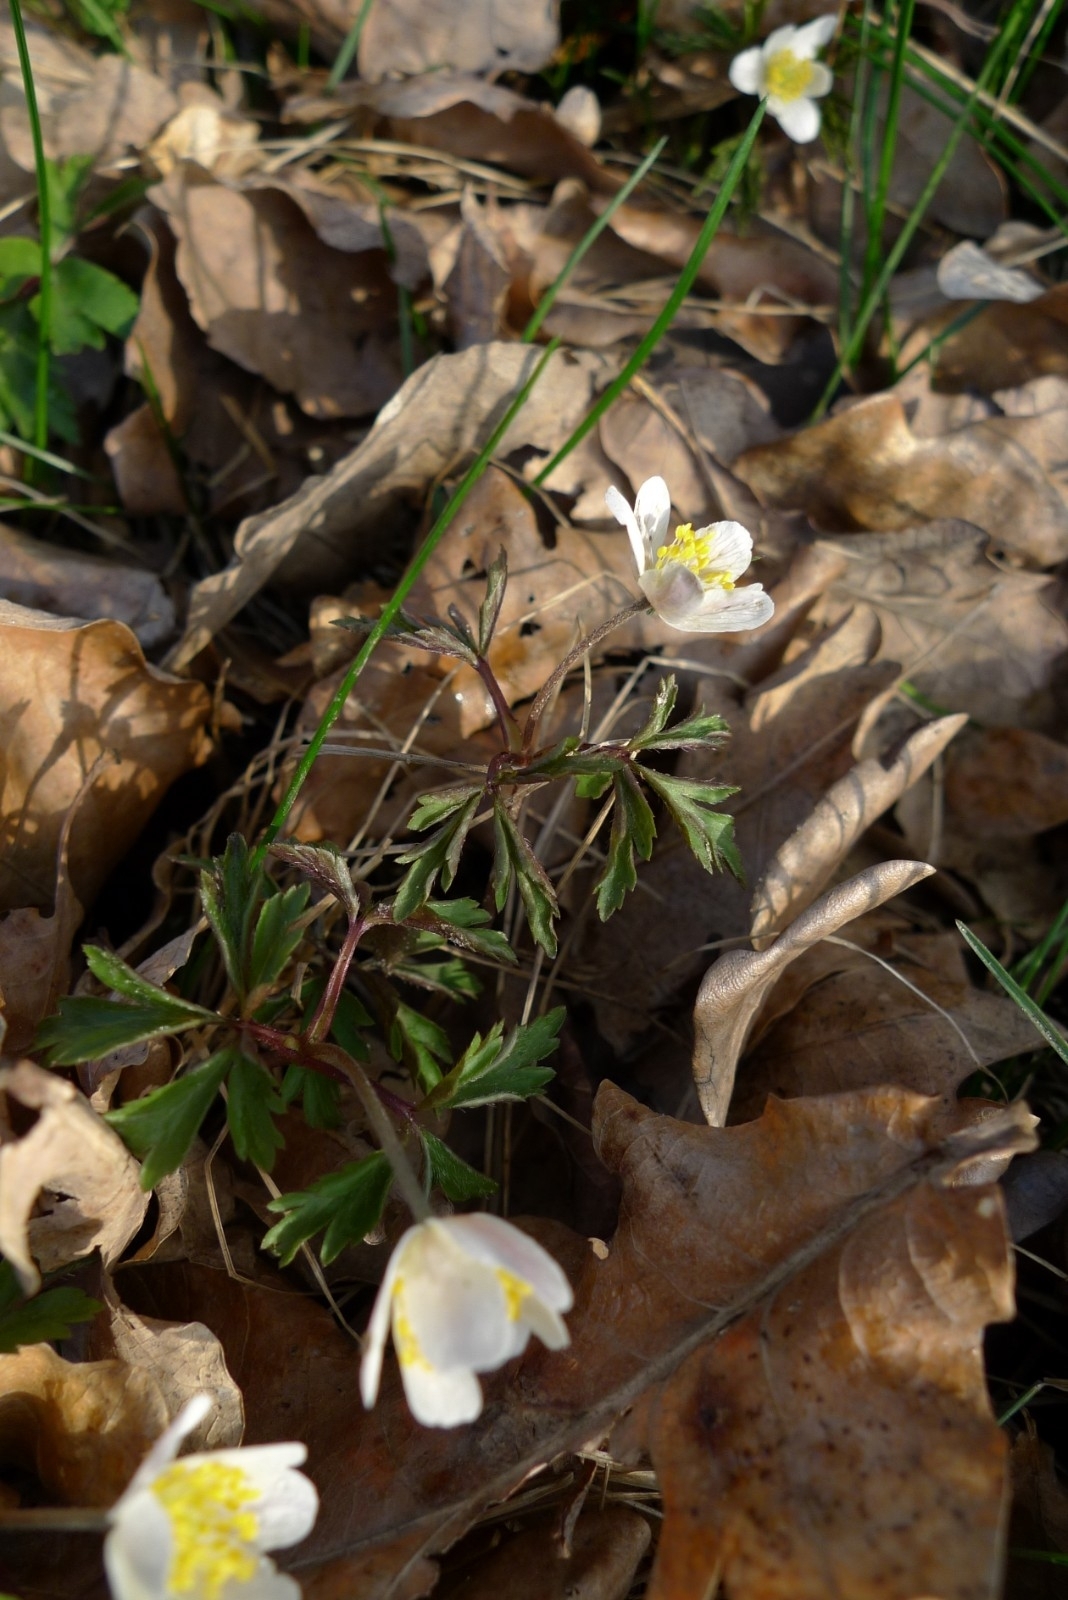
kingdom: Plantae
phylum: Tracheophyta
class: Magnoliopsida
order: Ranunculales
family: Ranunculaceae
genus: Anemone
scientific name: Anemone nemorosa
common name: Wood anemone
